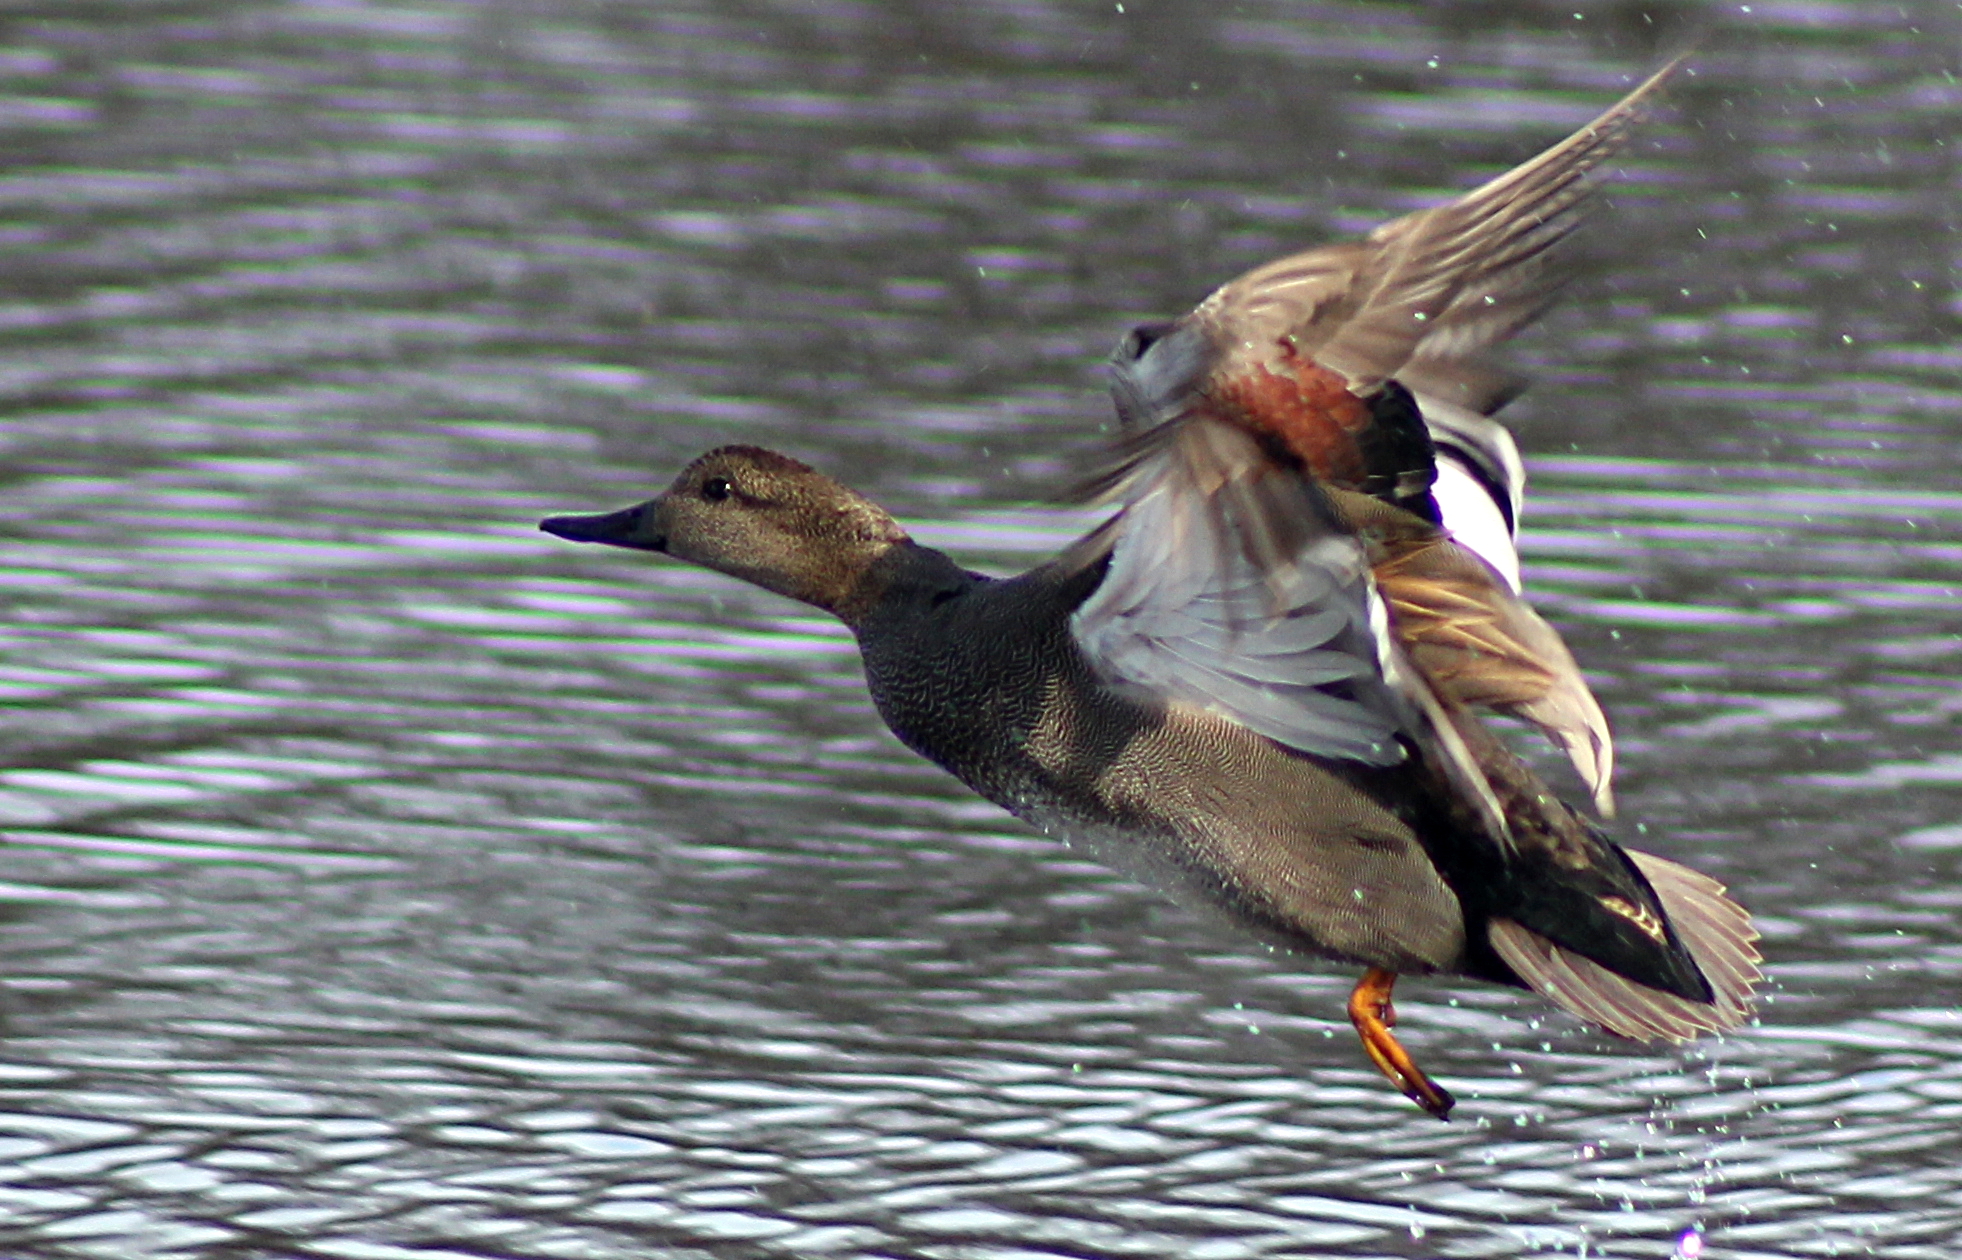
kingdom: Animalia
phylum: Chordata
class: Aves
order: Anseriformes
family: Anatidae
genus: Mareca
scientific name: Mareca strepera
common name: Gadwall
